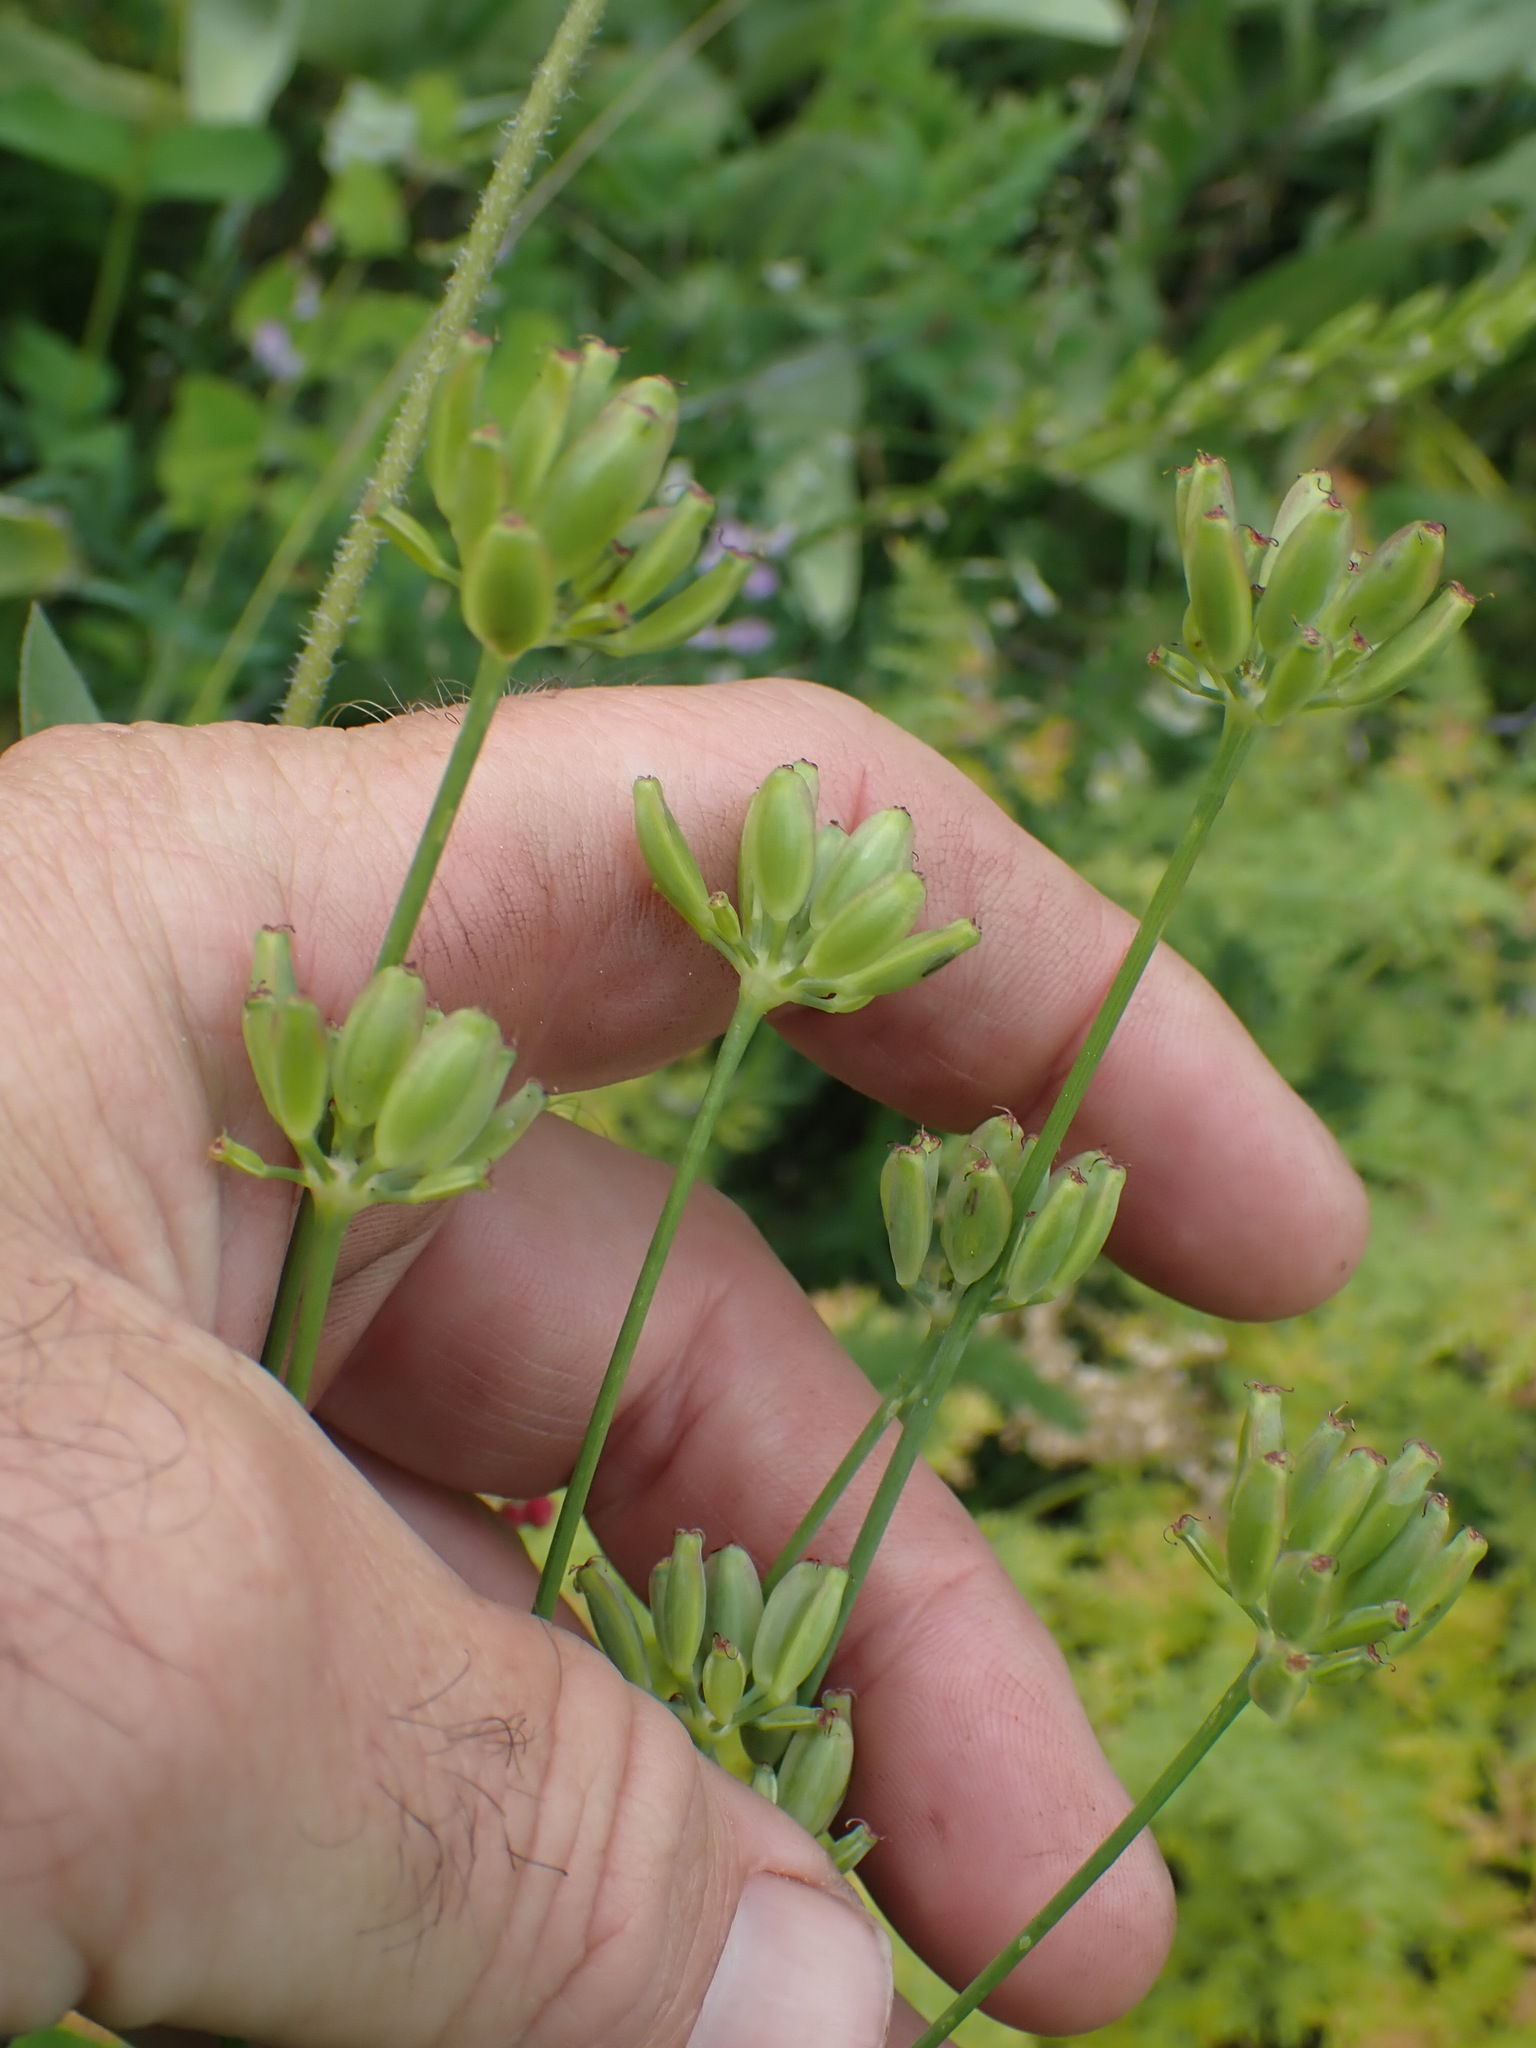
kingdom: Plantae
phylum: Tracheophyta
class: Magnoliopsida
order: Apiales
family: Apiaceae
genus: Lomatium
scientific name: Lomatium nudicaule
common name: Pestle lomatium
